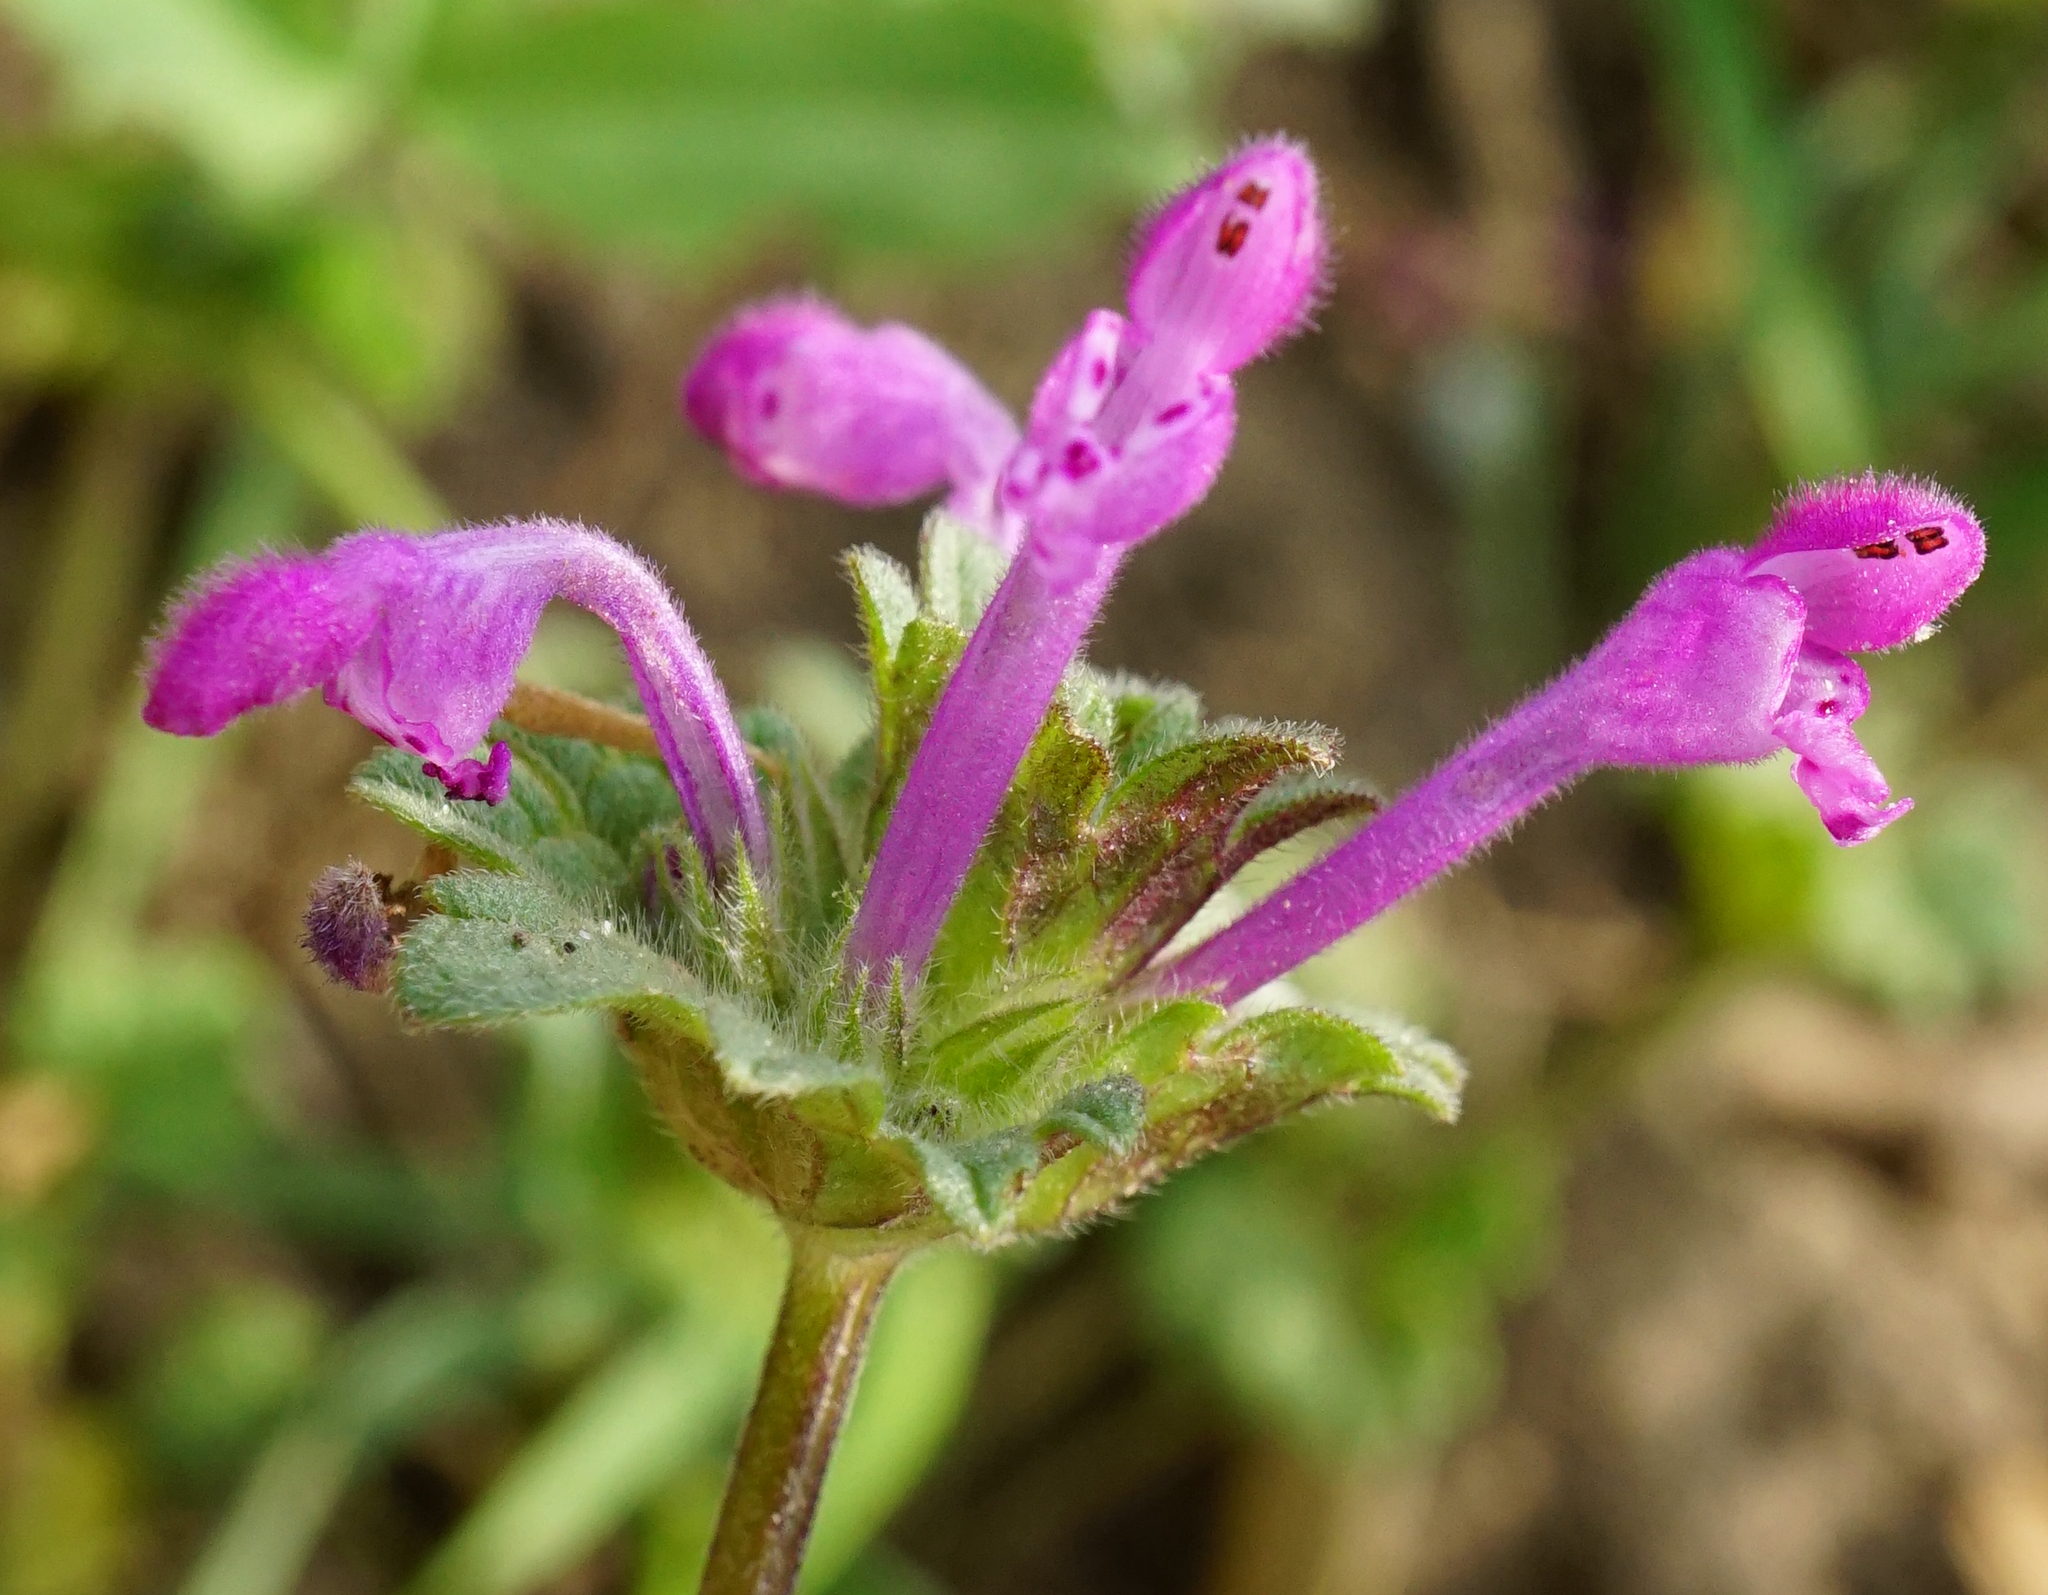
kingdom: Plantae
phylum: Tracheophyta
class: Magnoliopsida
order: Lamiales
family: Lamiaceae
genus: Lamium
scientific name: Lamium amplexicaule
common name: Henbit dead-nettle
